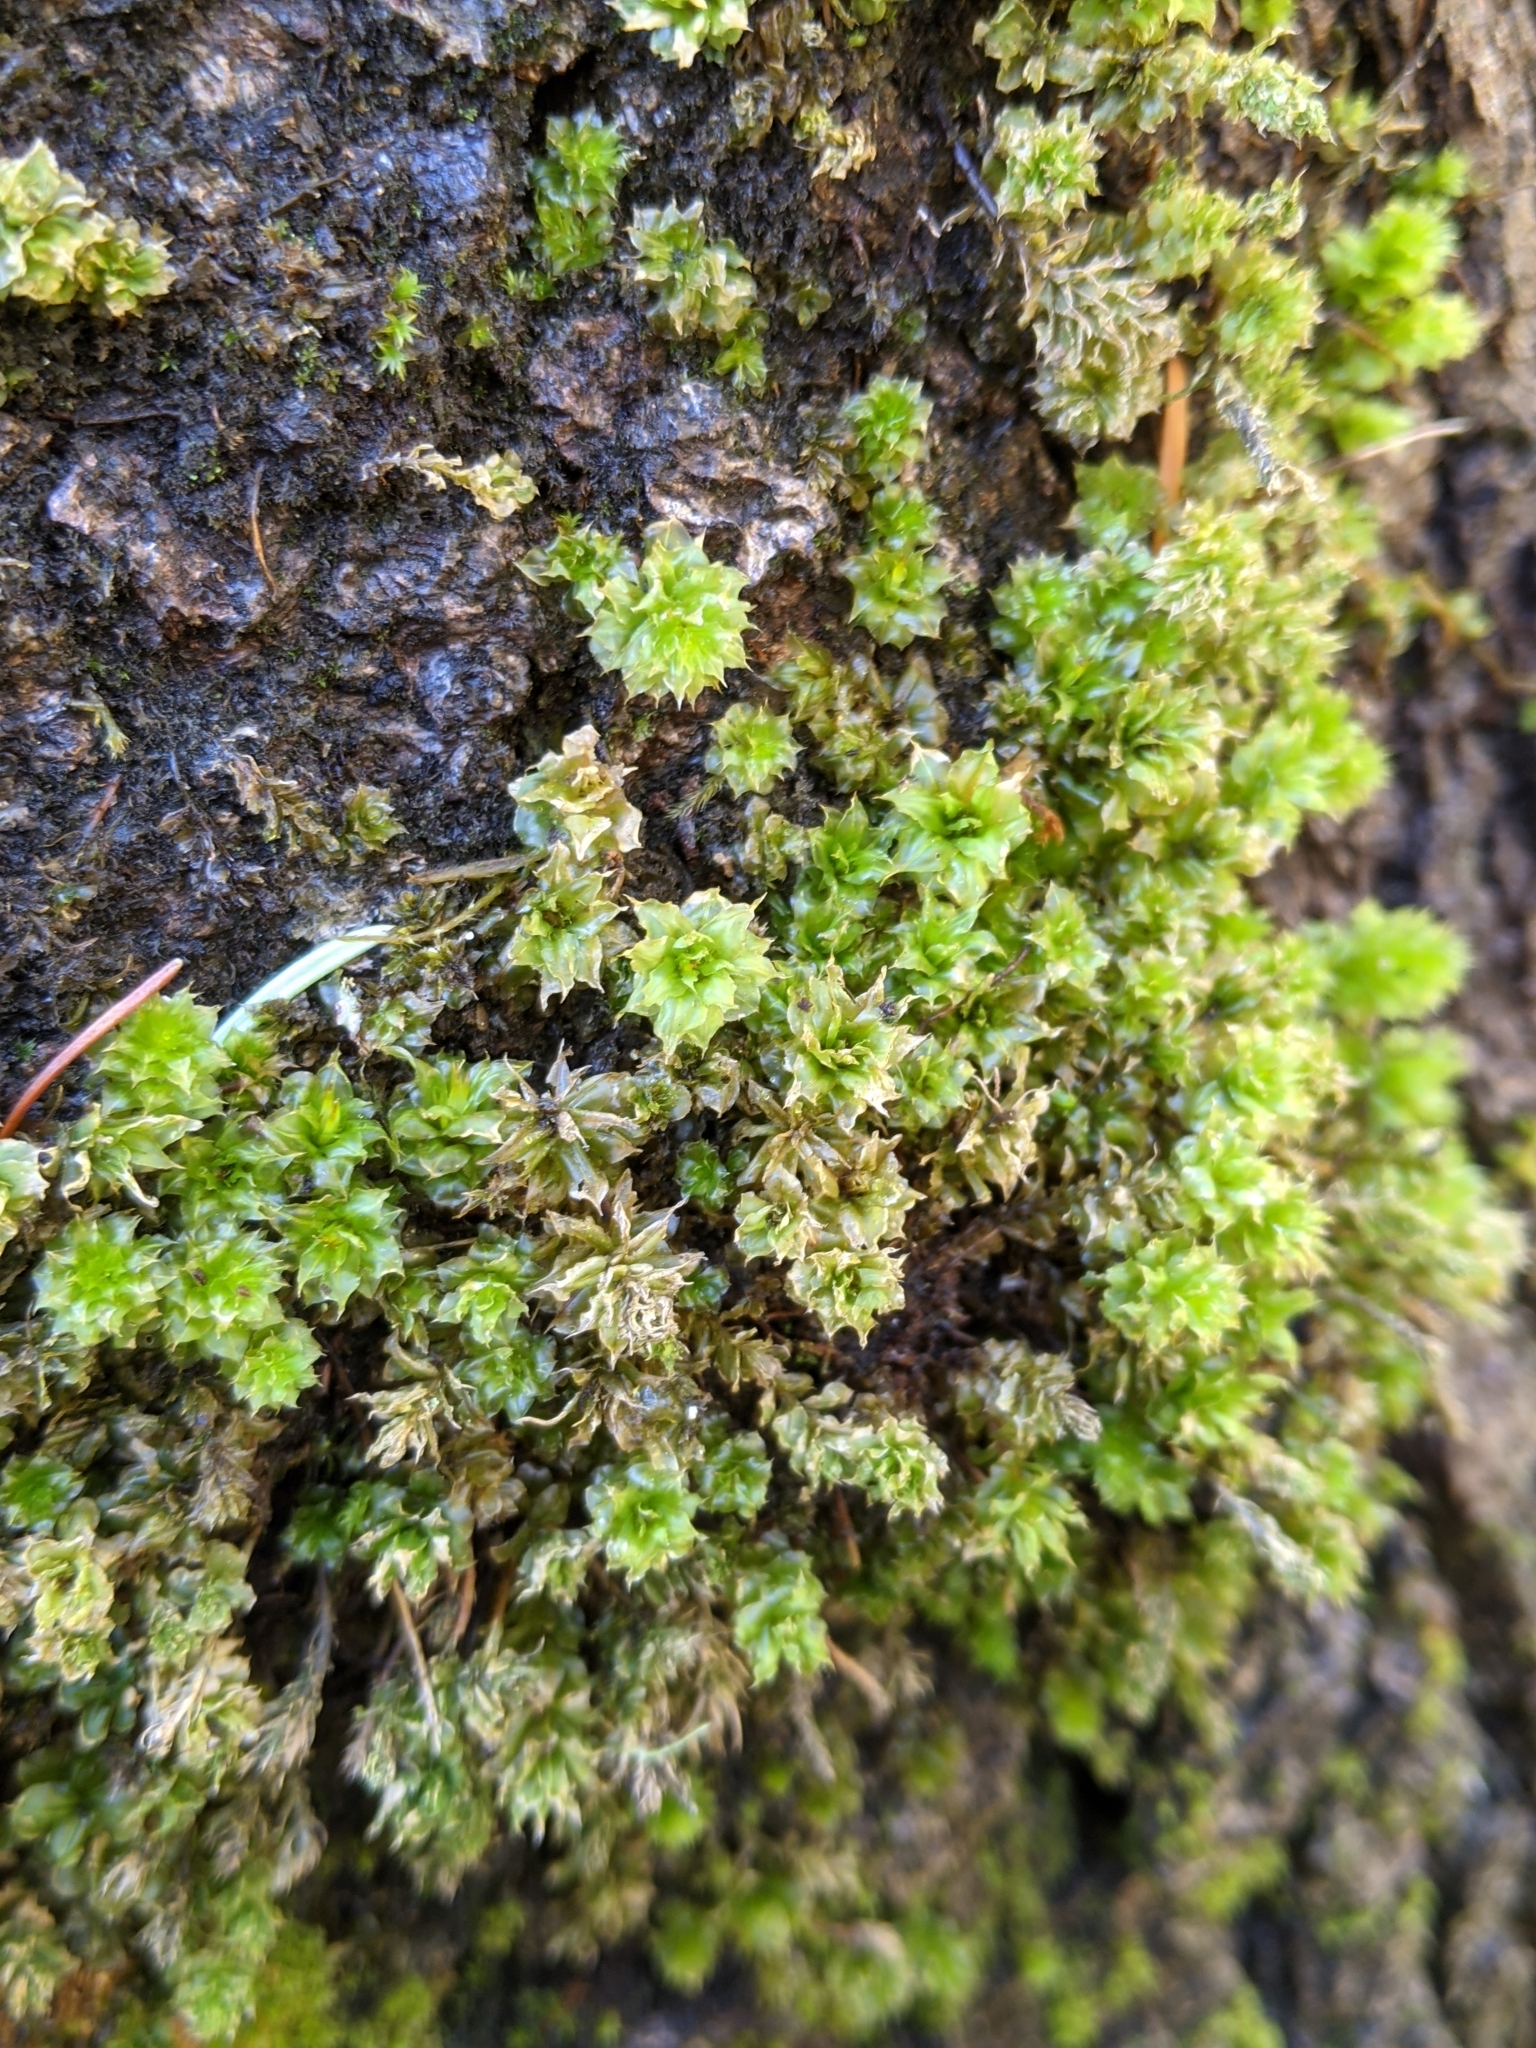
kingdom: Plantae
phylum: Bryophyta
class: Bryopsida
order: Bryales
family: Mniaceae
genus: Plagiomnium
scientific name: Plagiomnium venustum
